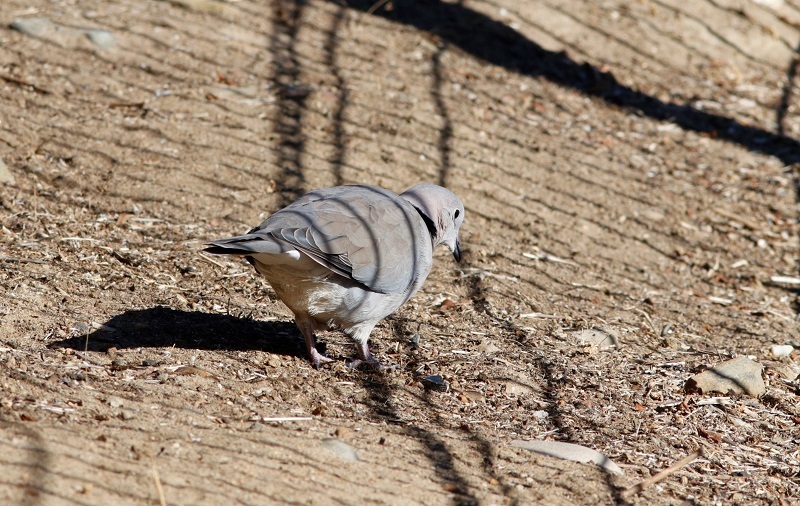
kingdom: Animalia
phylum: Chordata
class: Aves
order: Columbiformes
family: Columbidae
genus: Streptopelia
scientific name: Streptopelia capicola
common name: Ring-necked dove
